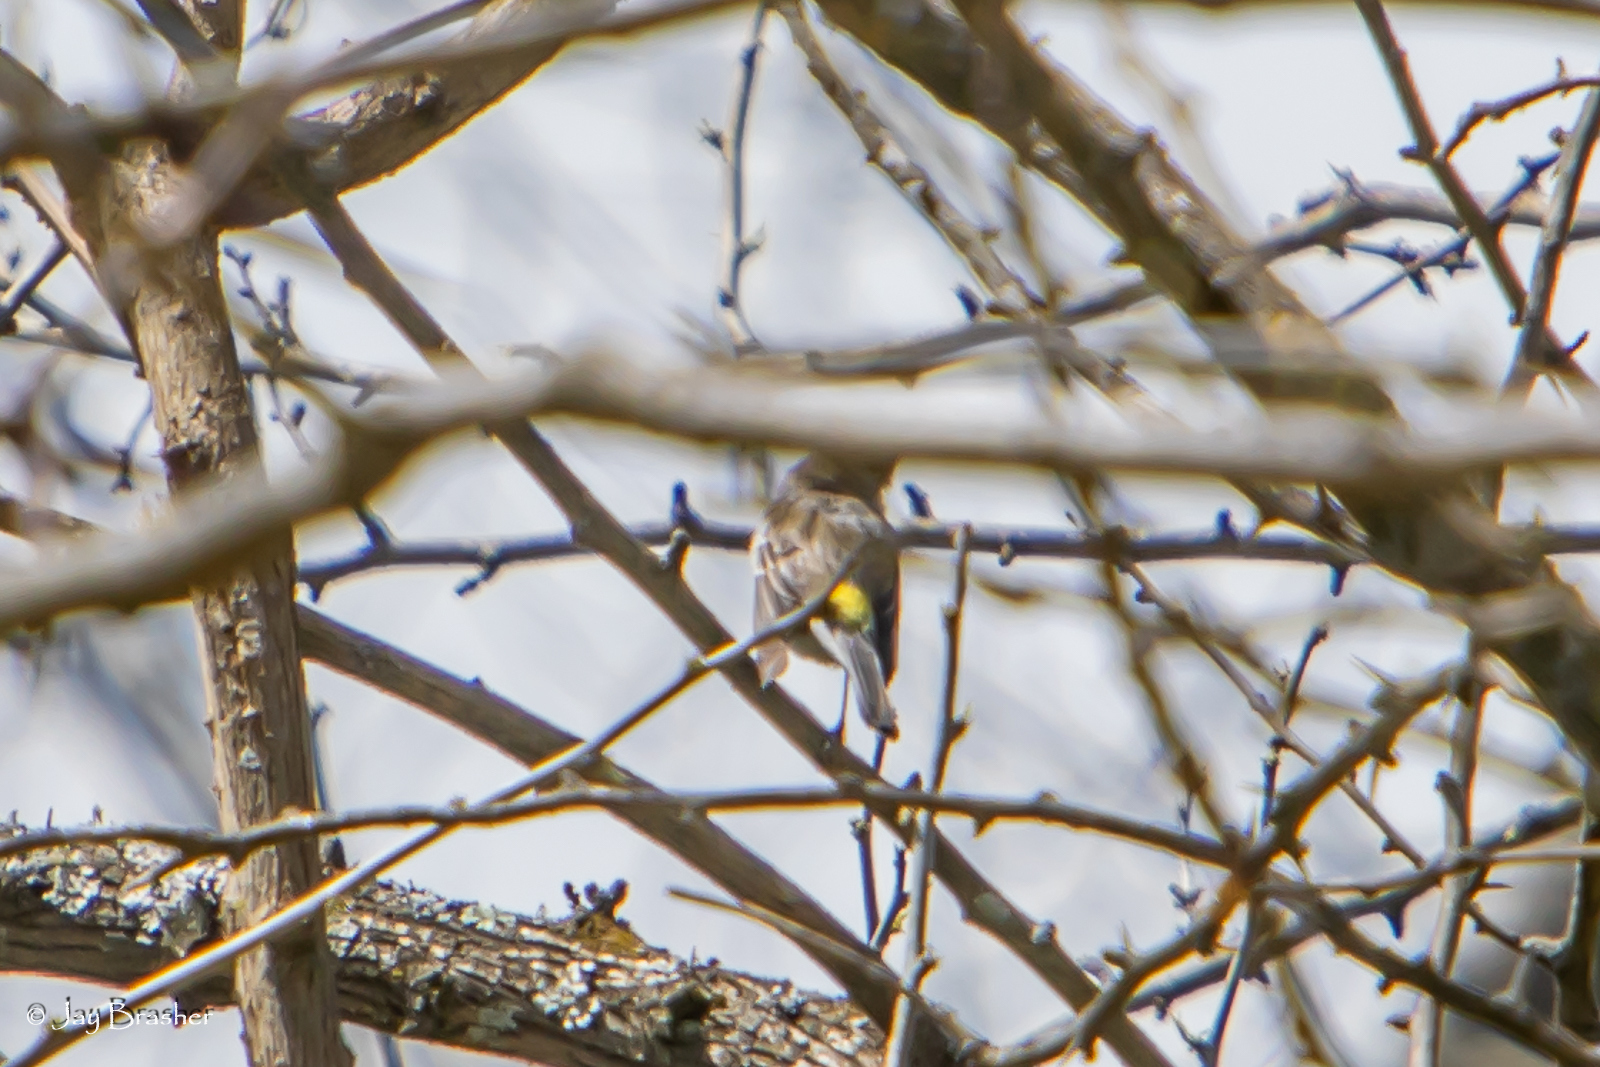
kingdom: Animalia
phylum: Chordata
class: Aves
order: Passeriformes
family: Parulidae
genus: Setophaga
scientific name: Setophaga coronata
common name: Myrtle warbler
